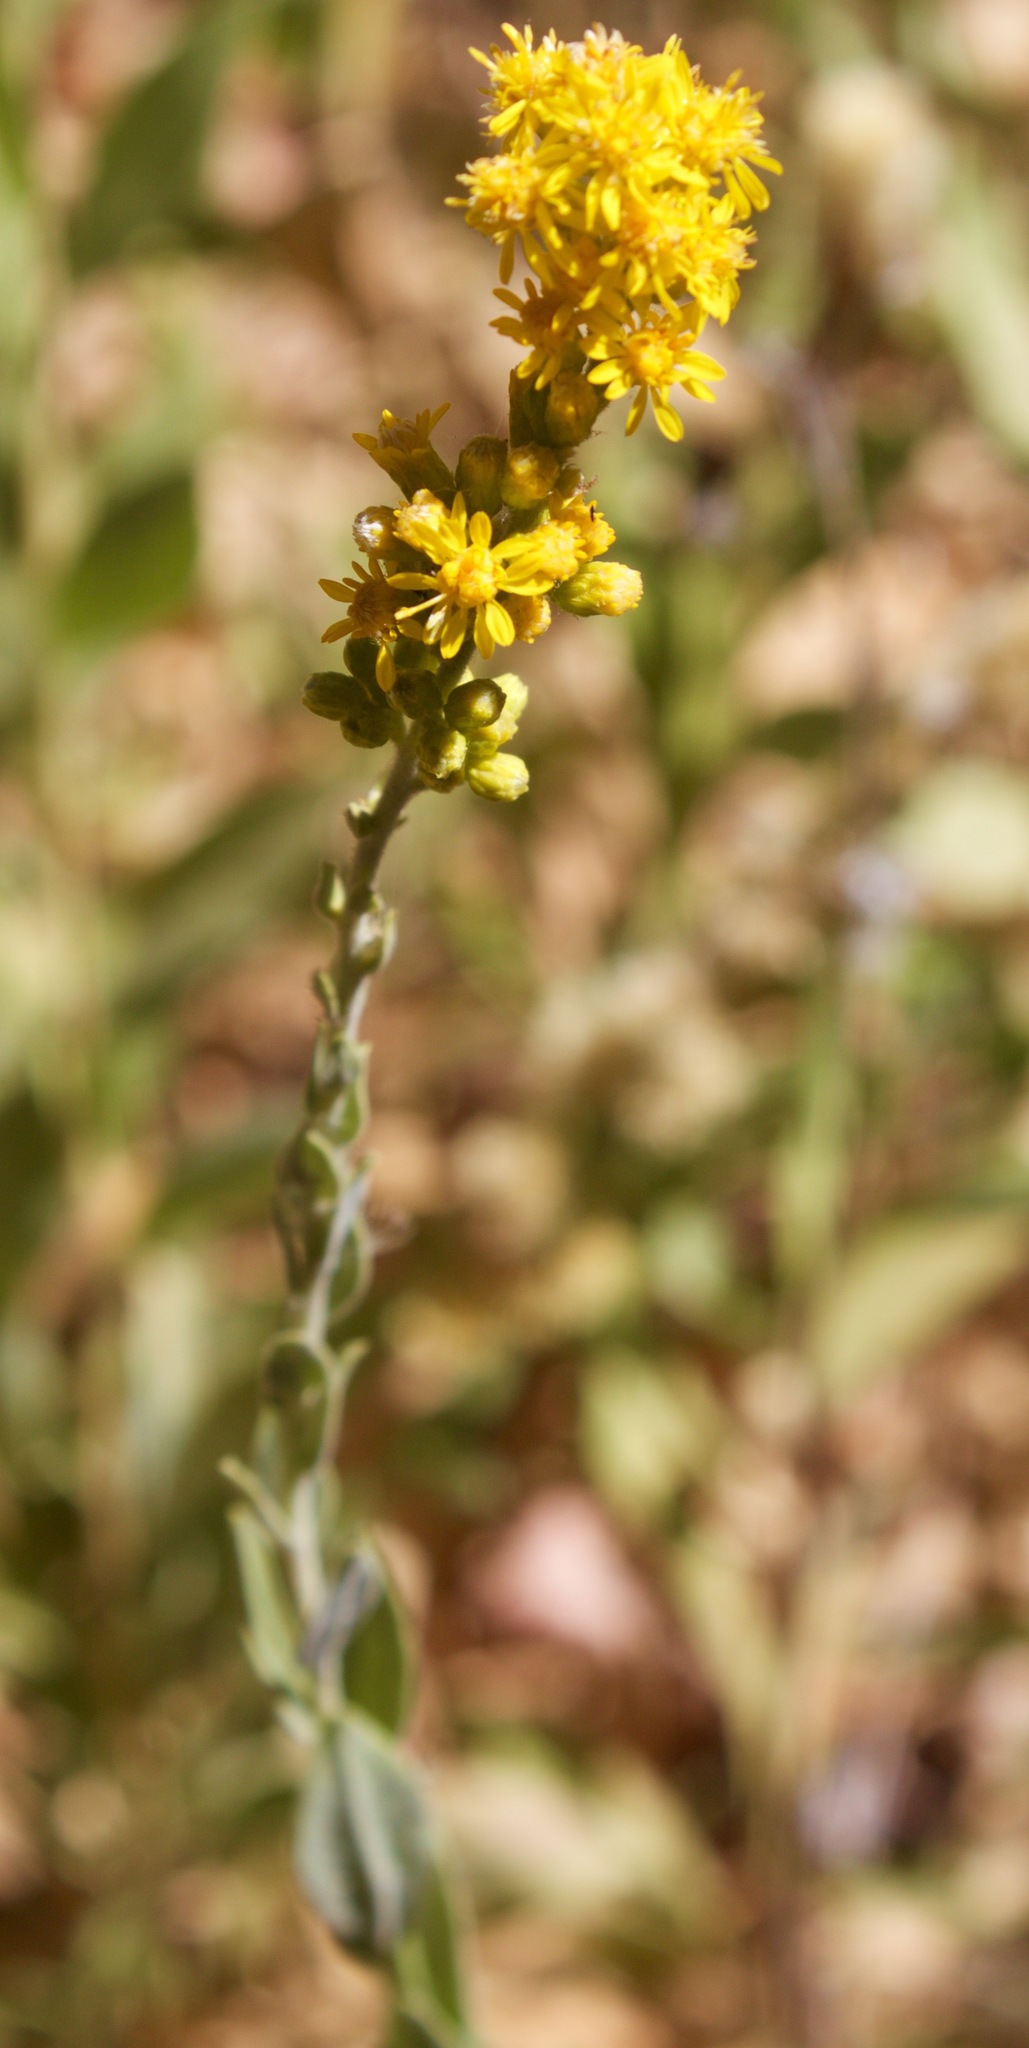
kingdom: Plantae
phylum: Tracheophyta
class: Magnoliopsida
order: Asterales
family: Asteraceae
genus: Solidago
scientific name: Solidago californica
